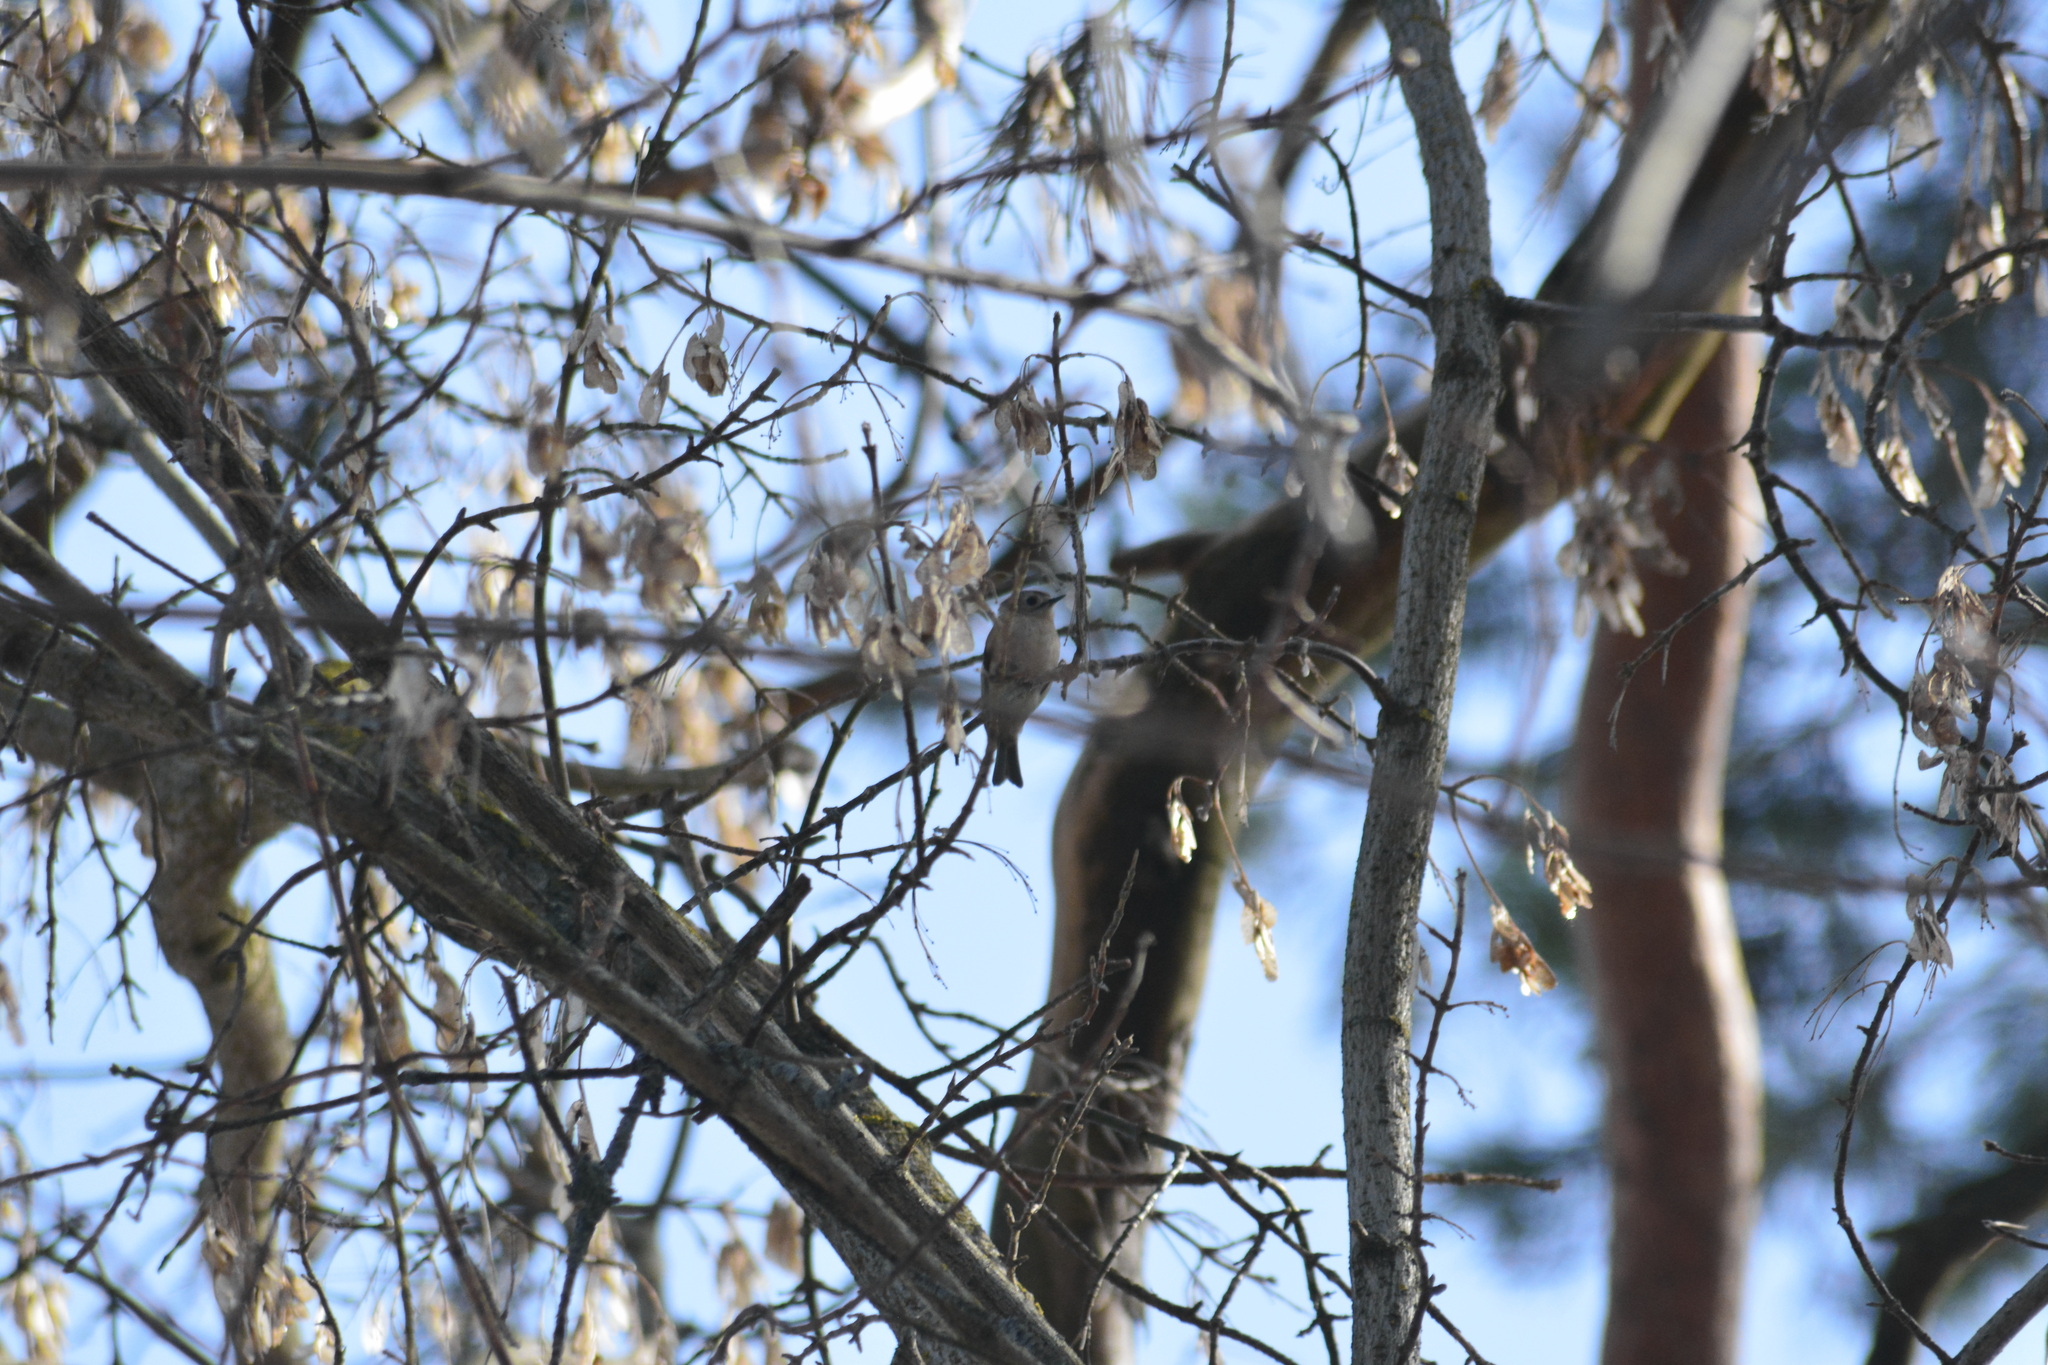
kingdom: Animalia
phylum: Chordata
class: Aves
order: Passeriformes
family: Regulidae
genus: Regulus
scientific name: Regulus regulus
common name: Goldcrest
